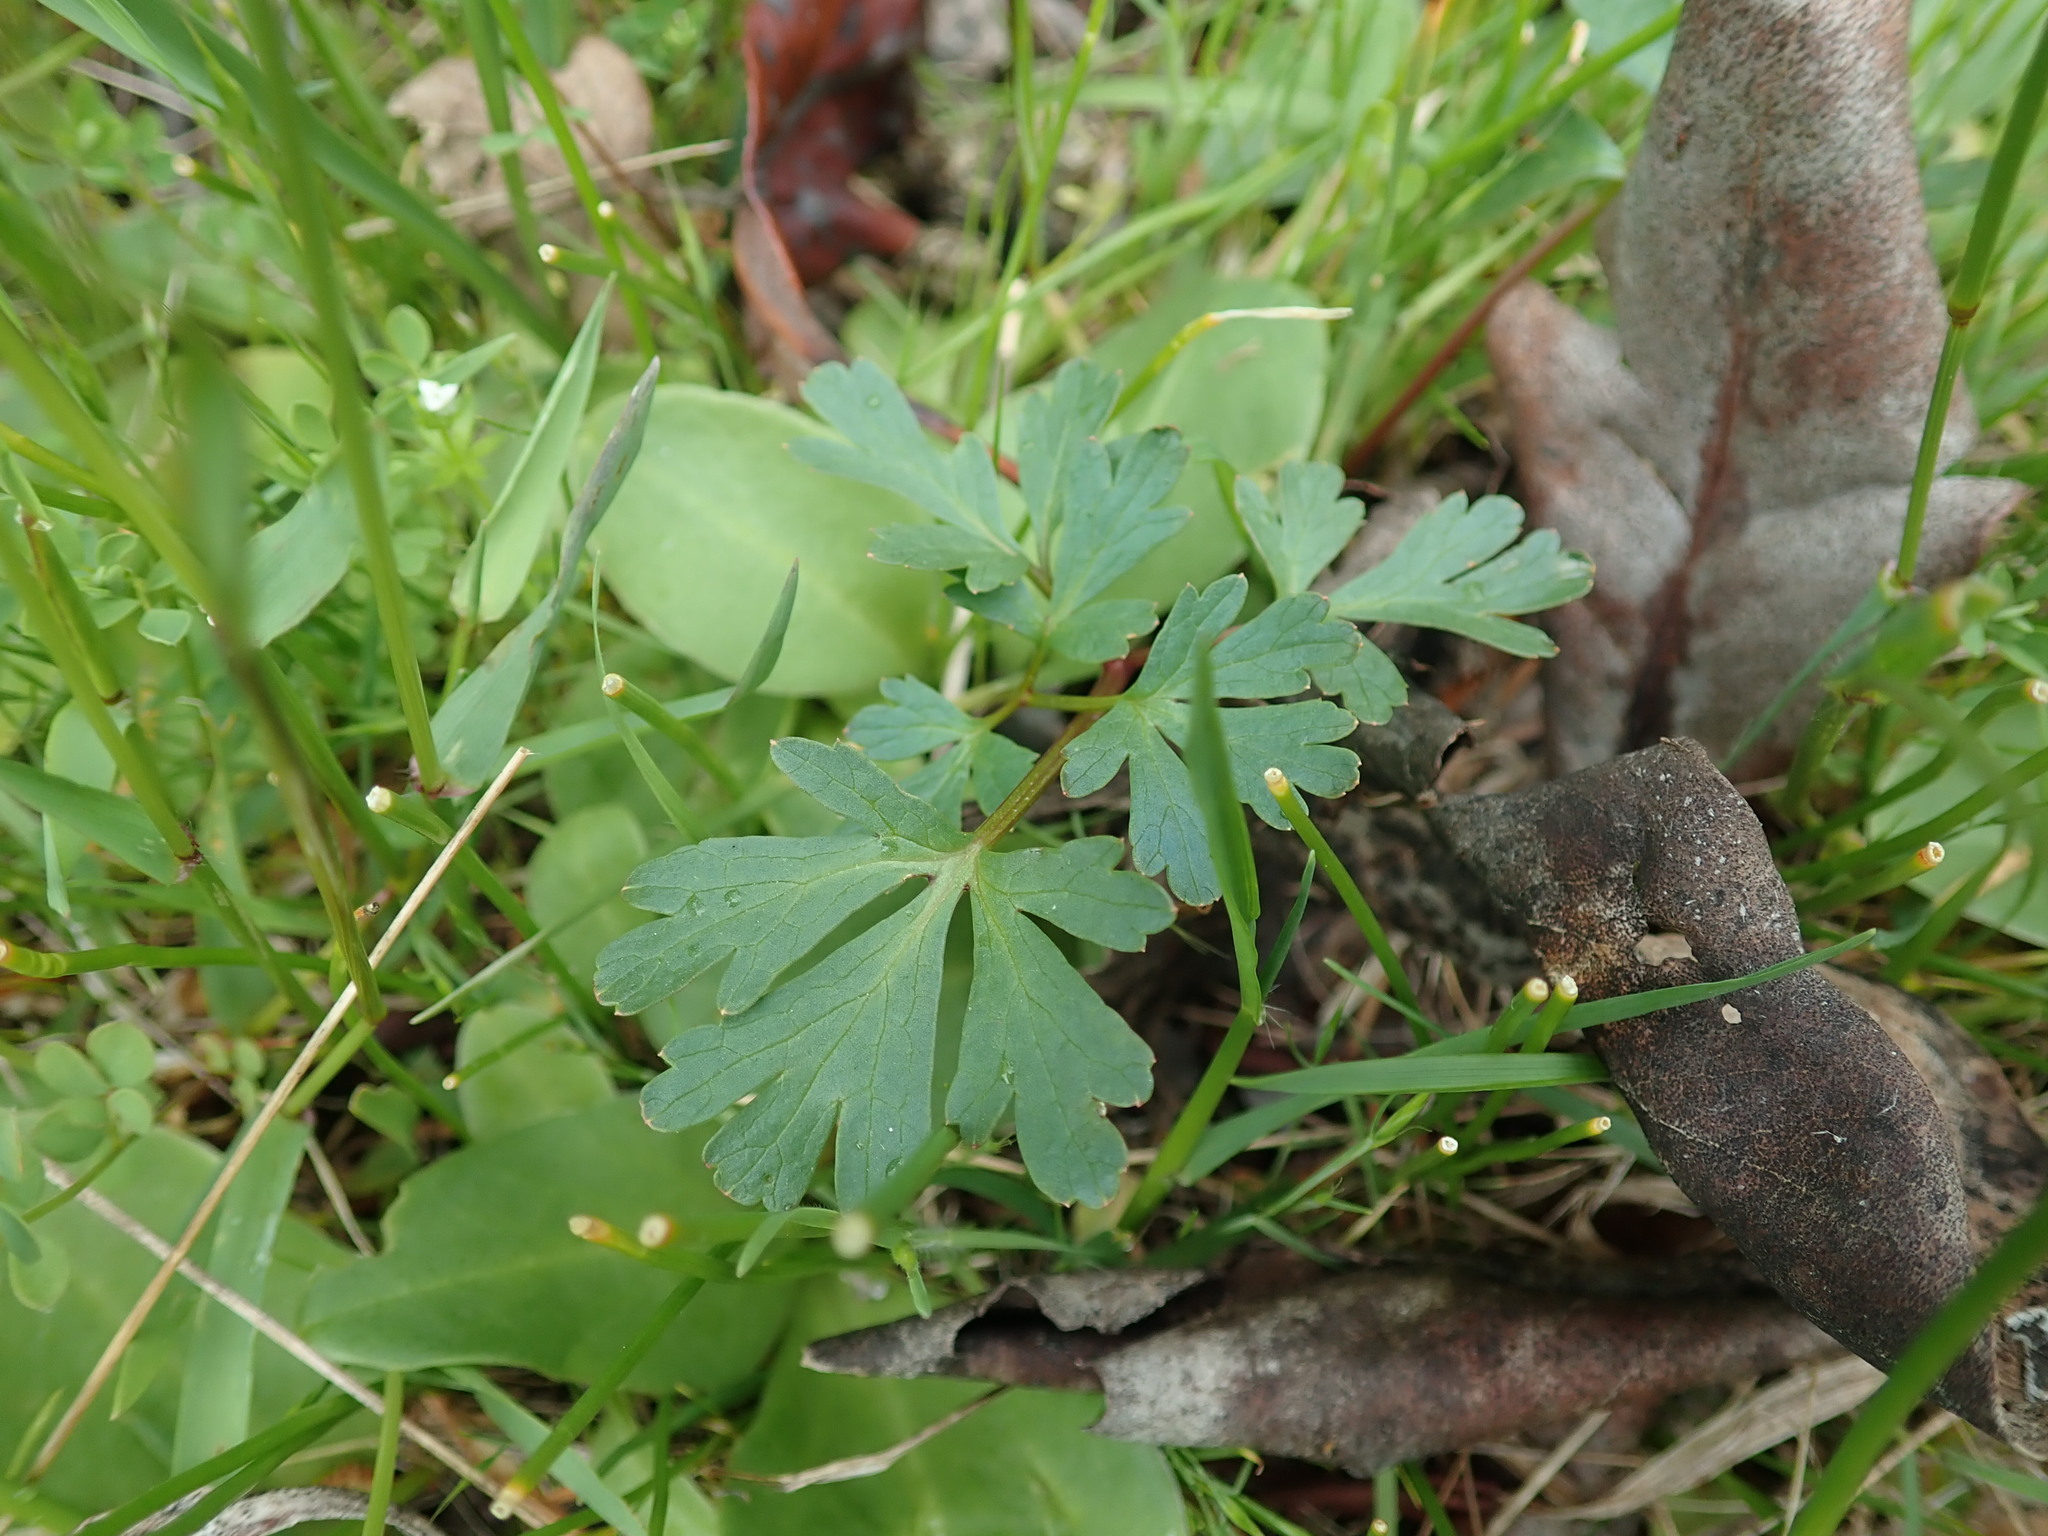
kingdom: Plantae
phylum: Tracheophyta
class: Magnoliopsida
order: Apiales
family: Apiaceae
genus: Sanicula
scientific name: Sanicula graveolens
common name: Sierra sanicle
